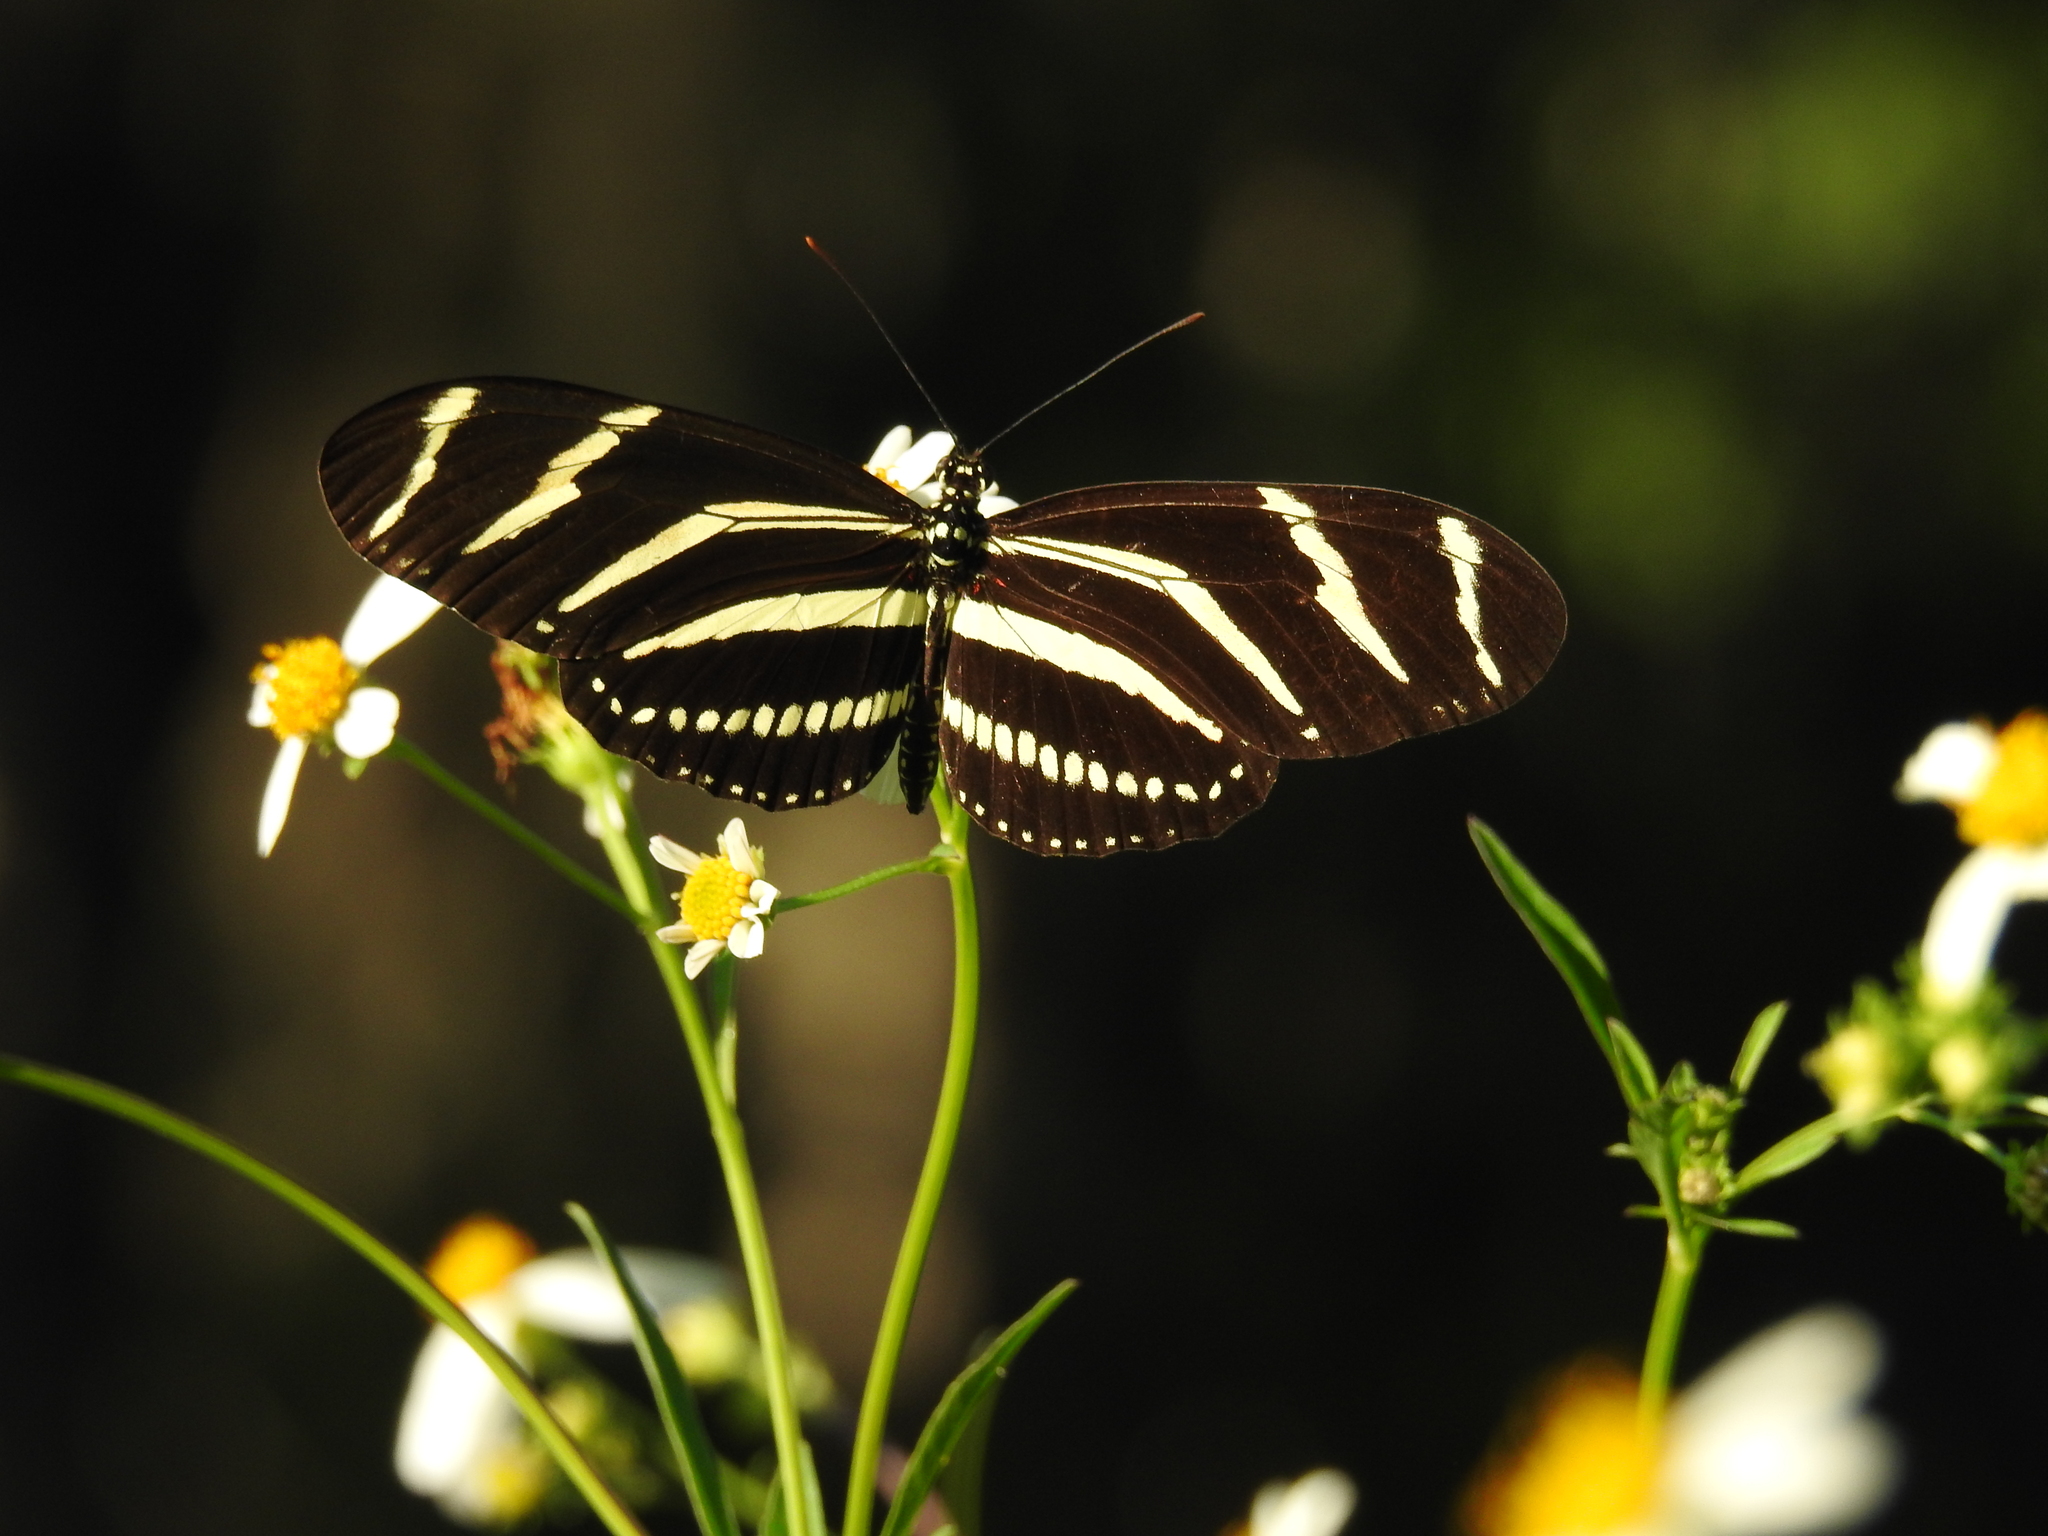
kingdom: Animalia
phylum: Arthropoda
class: Insecta
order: Lepidoptera
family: Nymphalidae
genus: Heliconius
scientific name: Heliconius charithonia
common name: Zebra long wing
